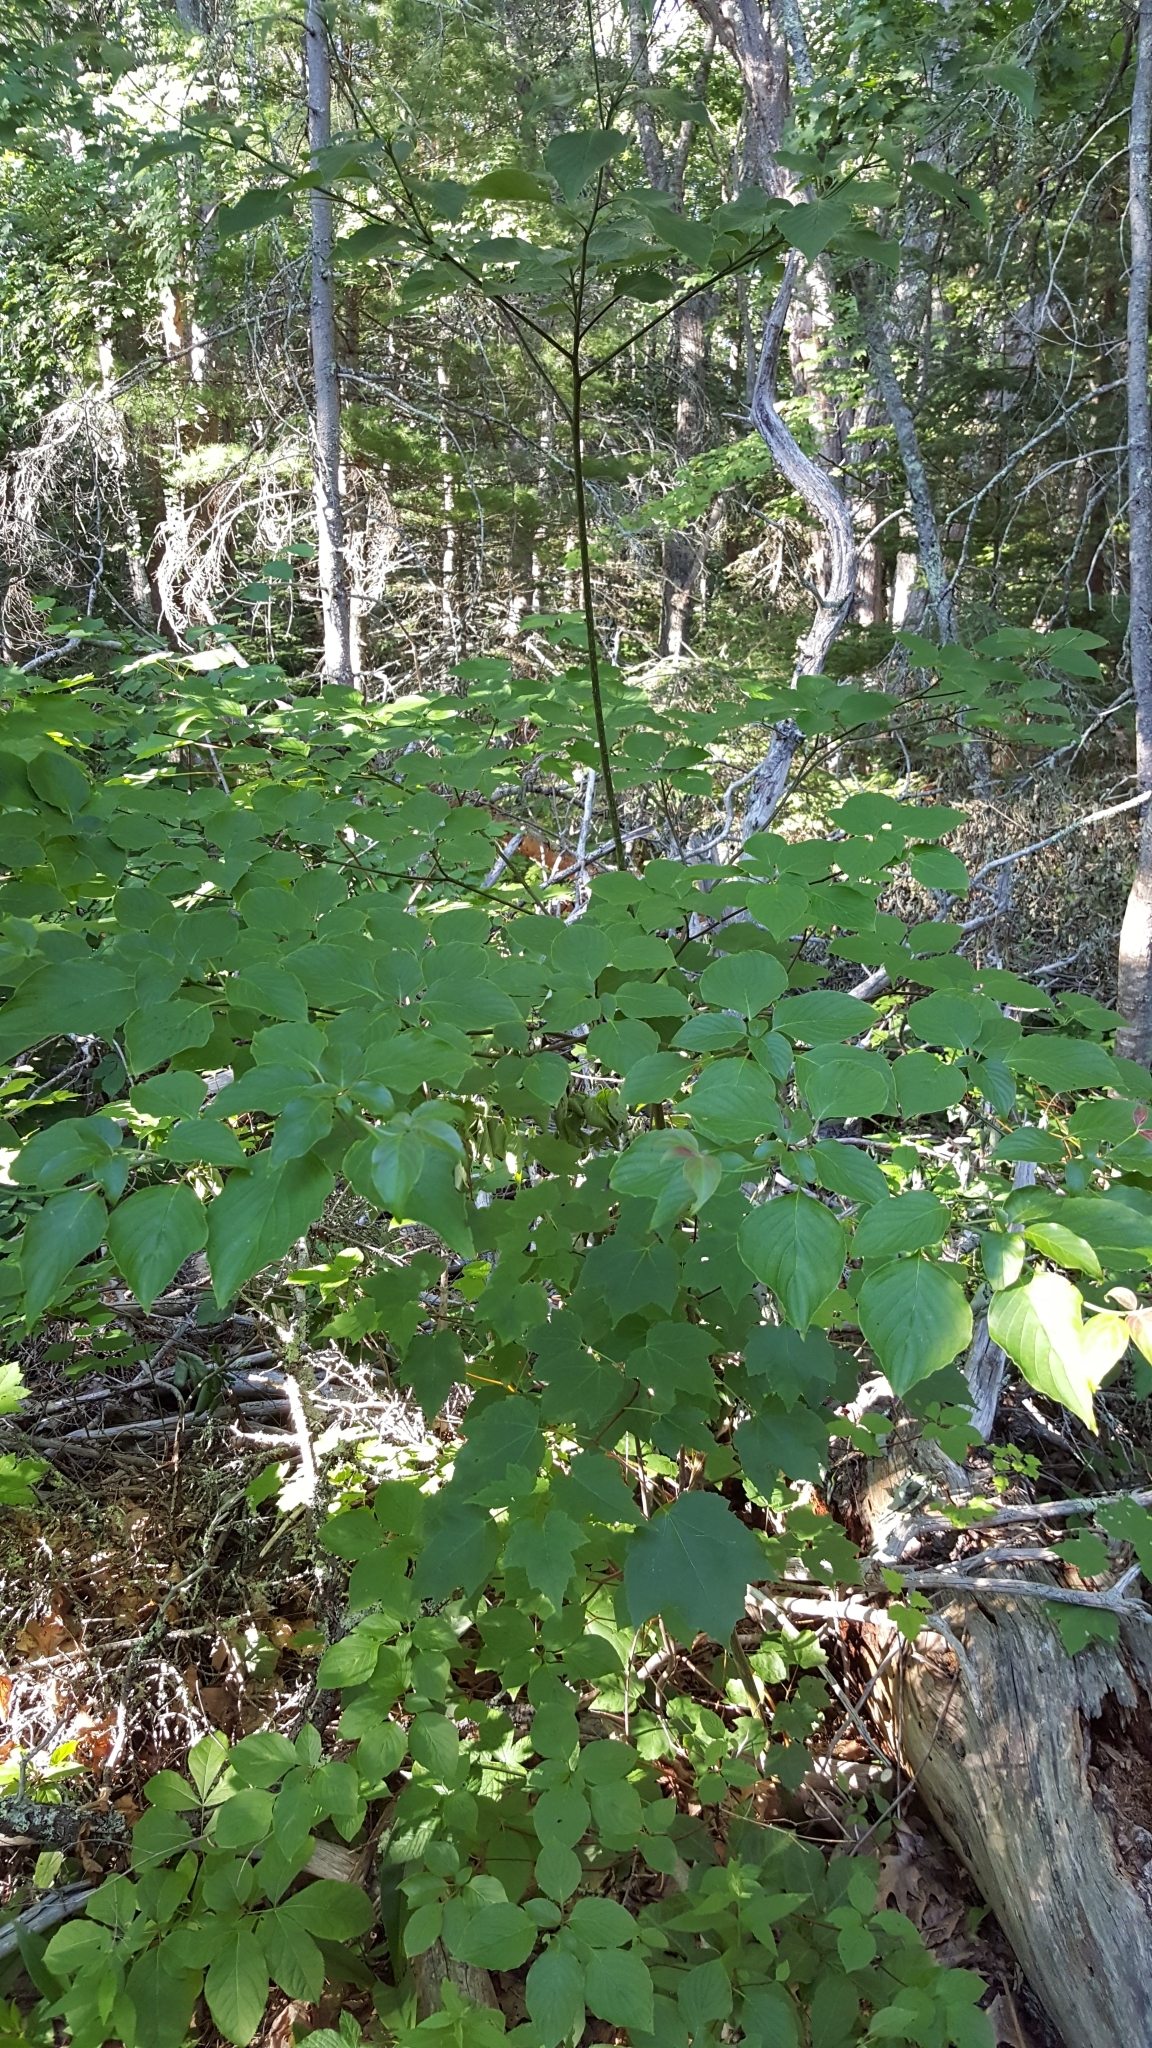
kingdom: Plantae
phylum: Tracheophyta
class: Magnoliopsida
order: Cornales
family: Cornaceae
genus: Cornus
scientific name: Cornus alternifolia
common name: Pagoda dogwood
